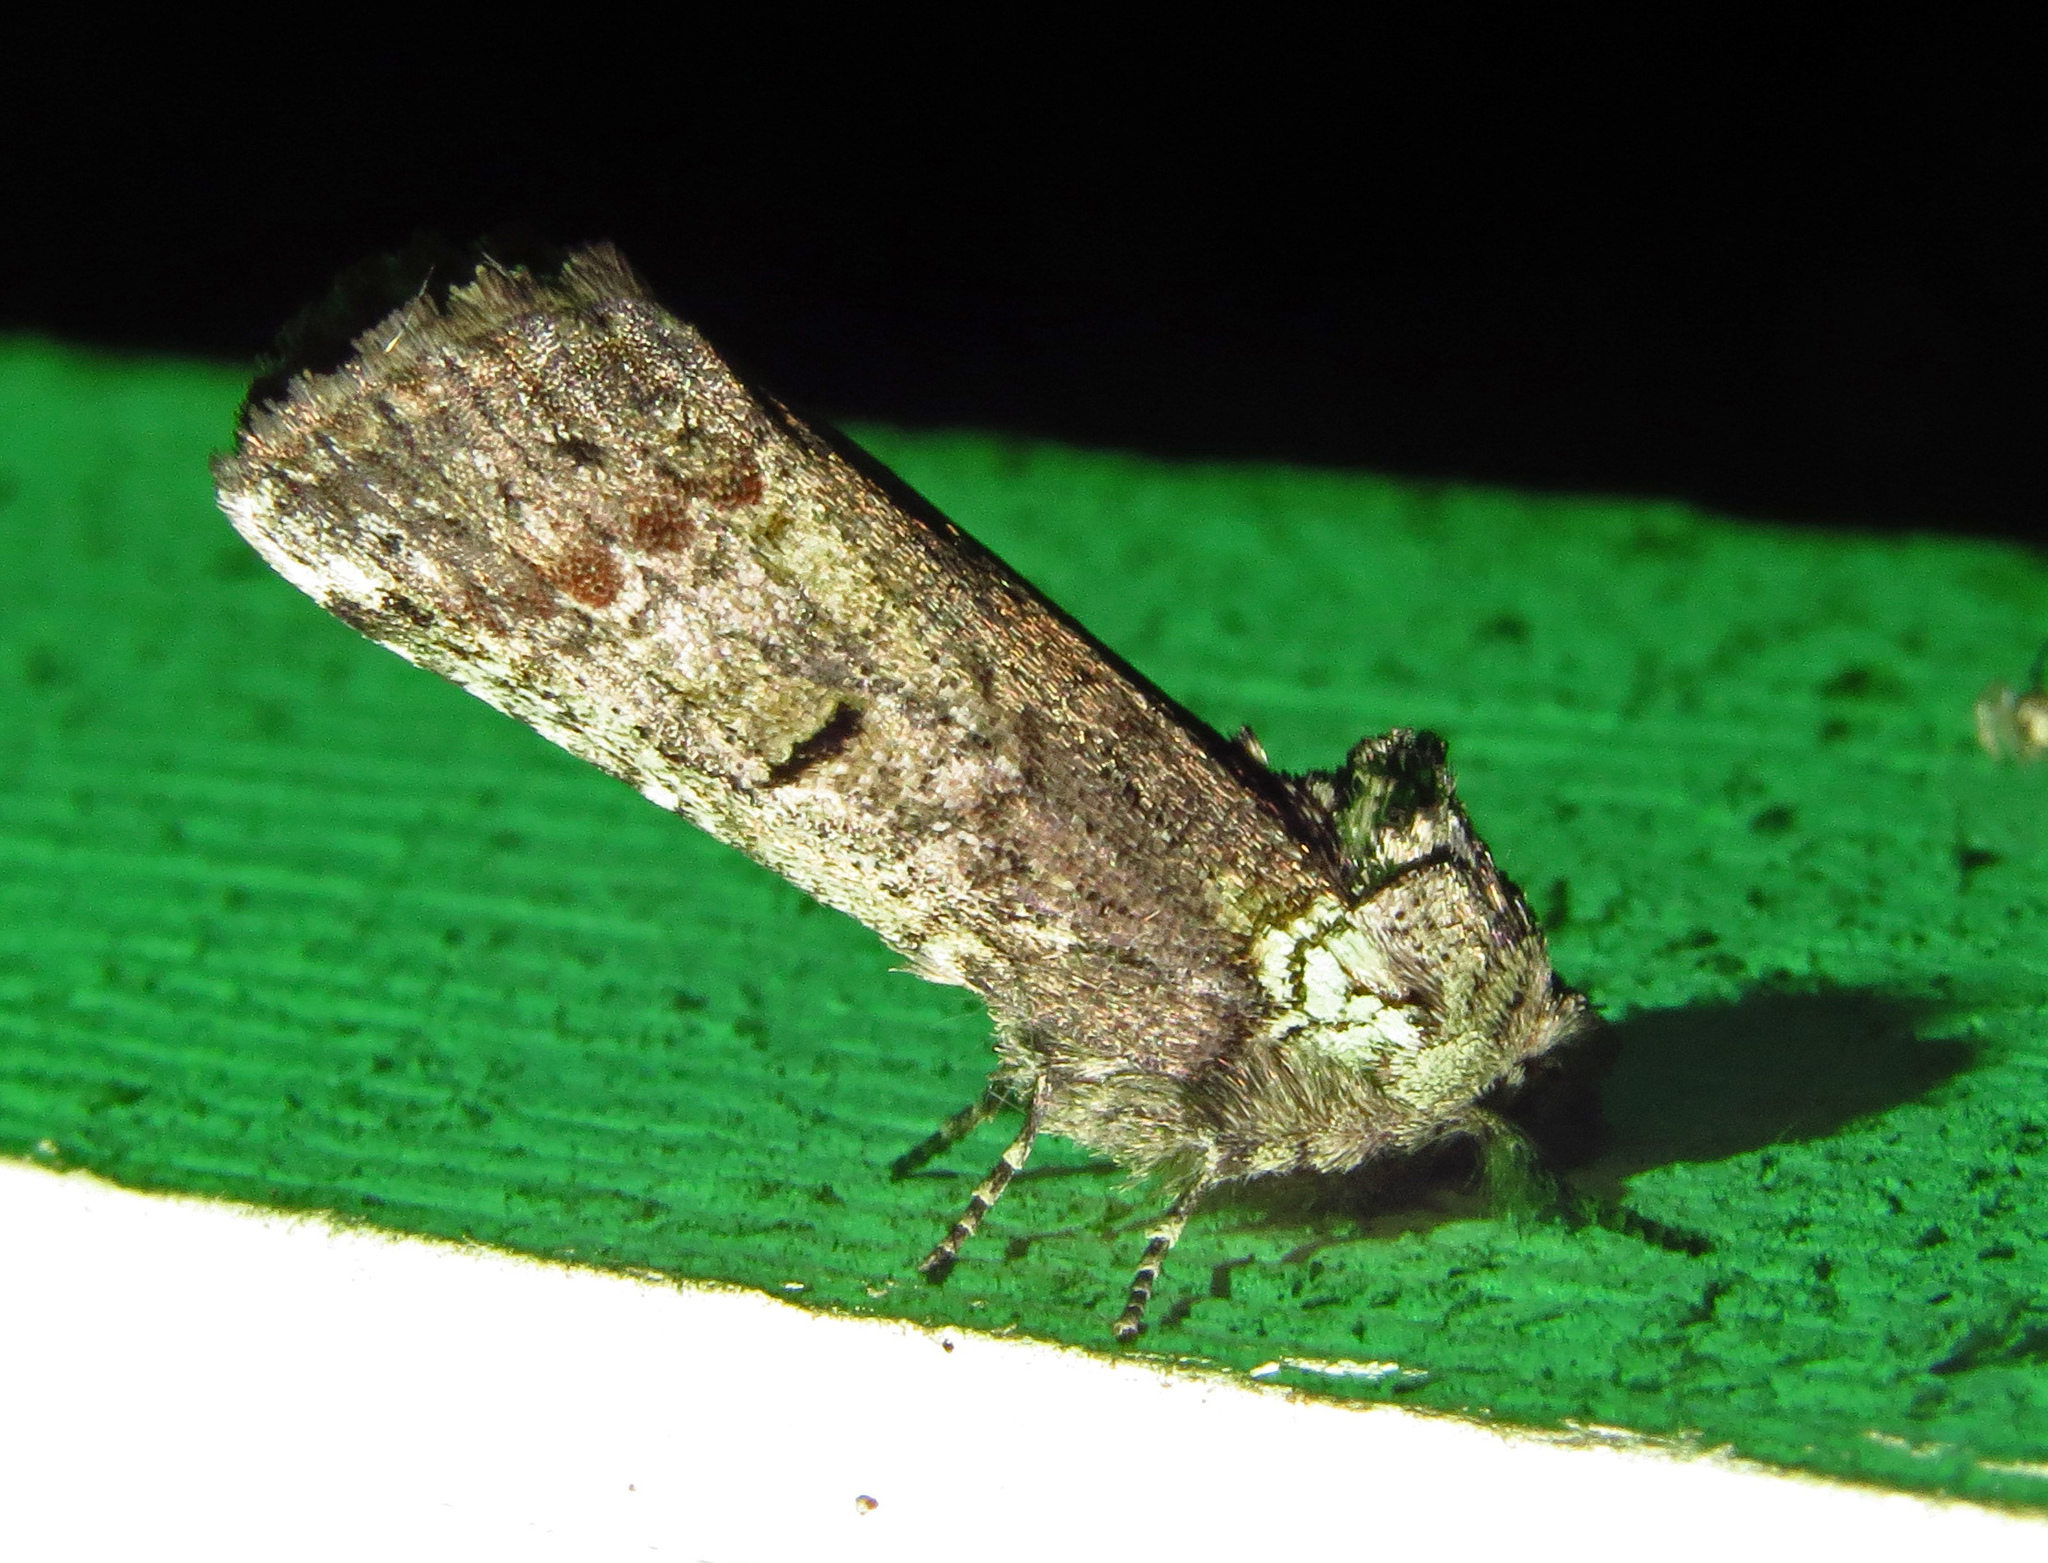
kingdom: Animalia
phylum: Arthropoda
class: Insecta
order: Lepidoptera
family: Notodontidae
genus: Schizura
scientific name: Schizura
